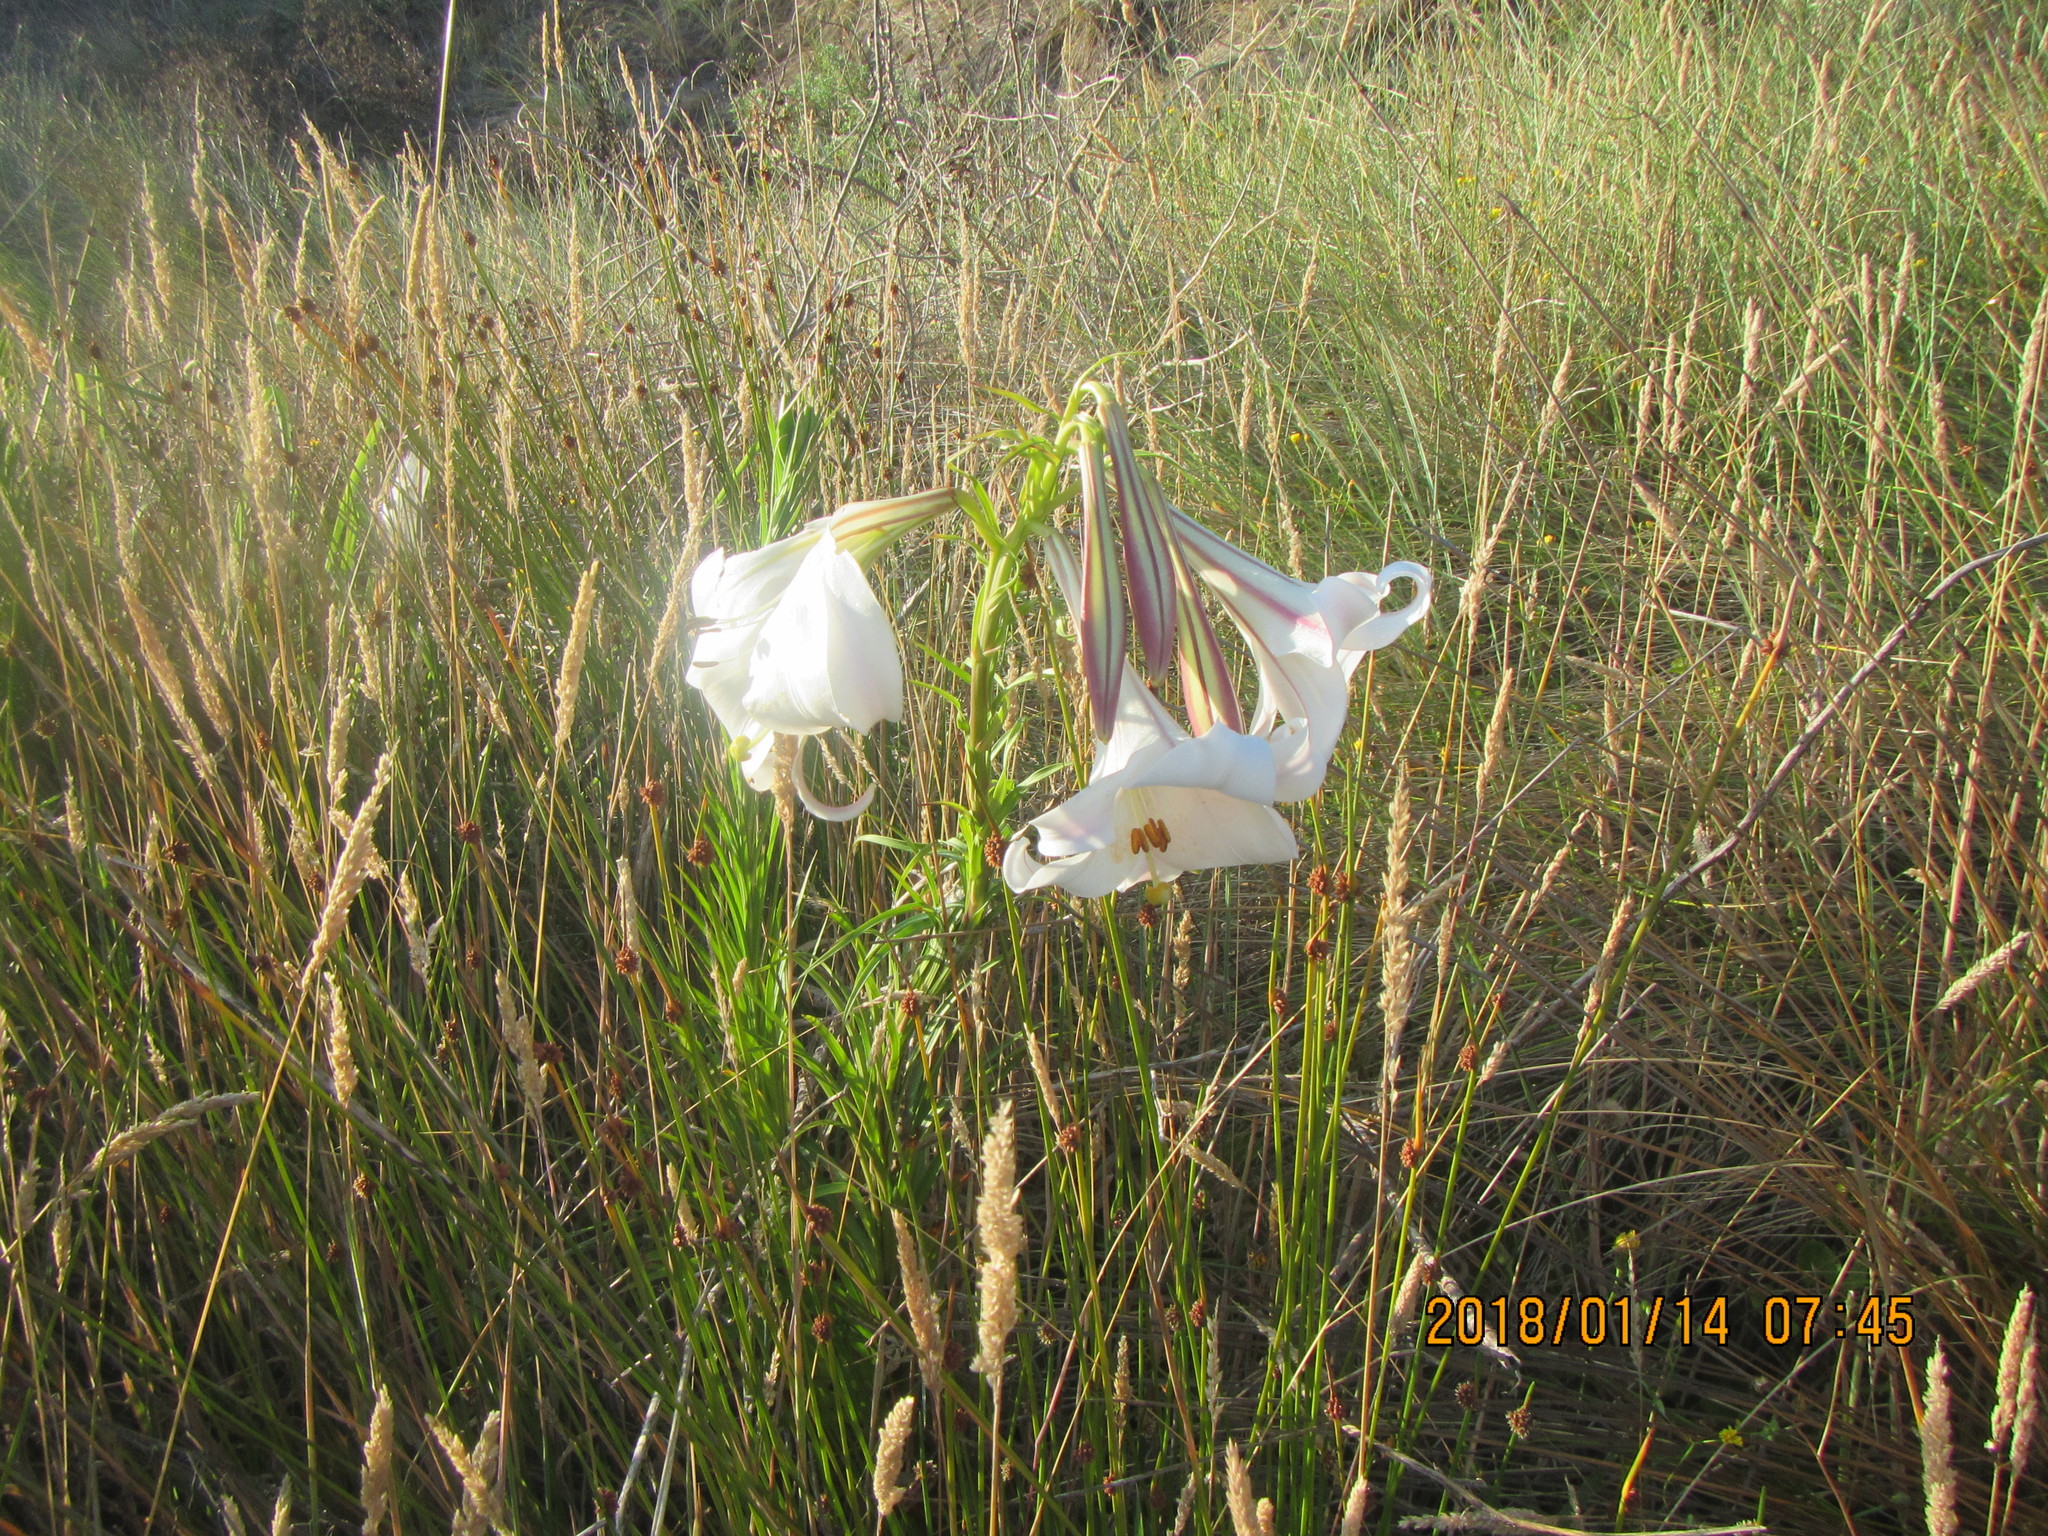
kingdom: Plantae
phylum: Tracheophyta
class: Liliopsida
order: Liliales
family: Liliaceae
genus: Lilium
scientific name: Lilium formosanum
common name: Formosa lily
